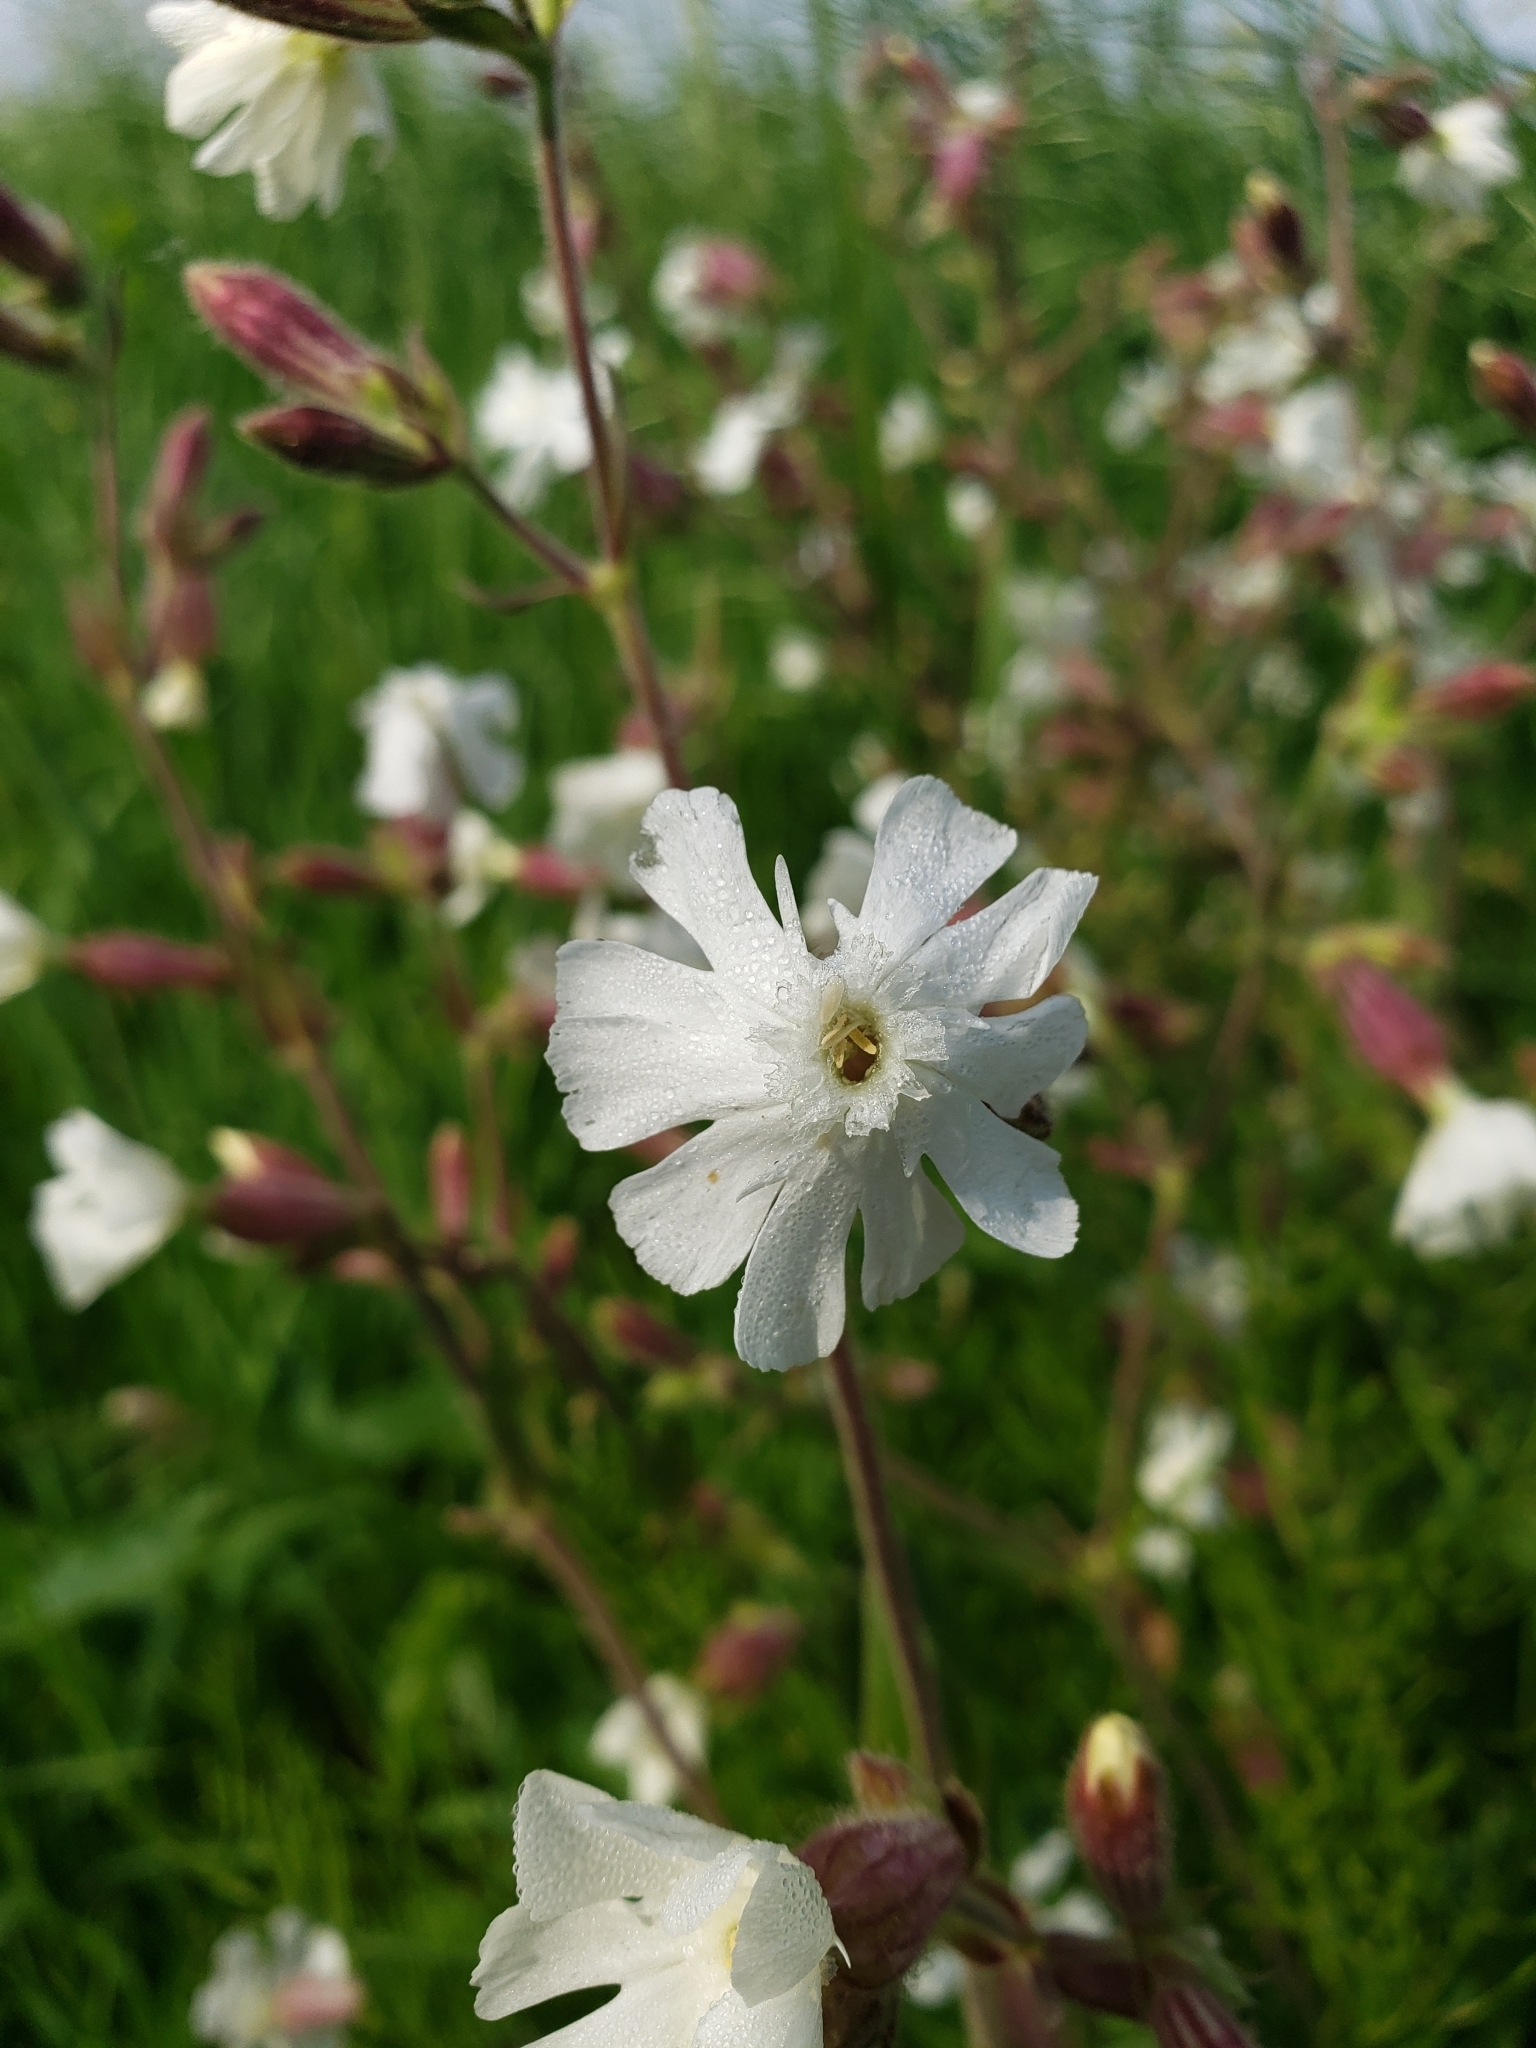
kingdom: Plantae
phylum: Tracheophyta
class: Magnoliopsida
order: Caryophyllales
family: Caryophyllaceae
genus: Silene
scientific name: Silene latifolia
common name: White campion
